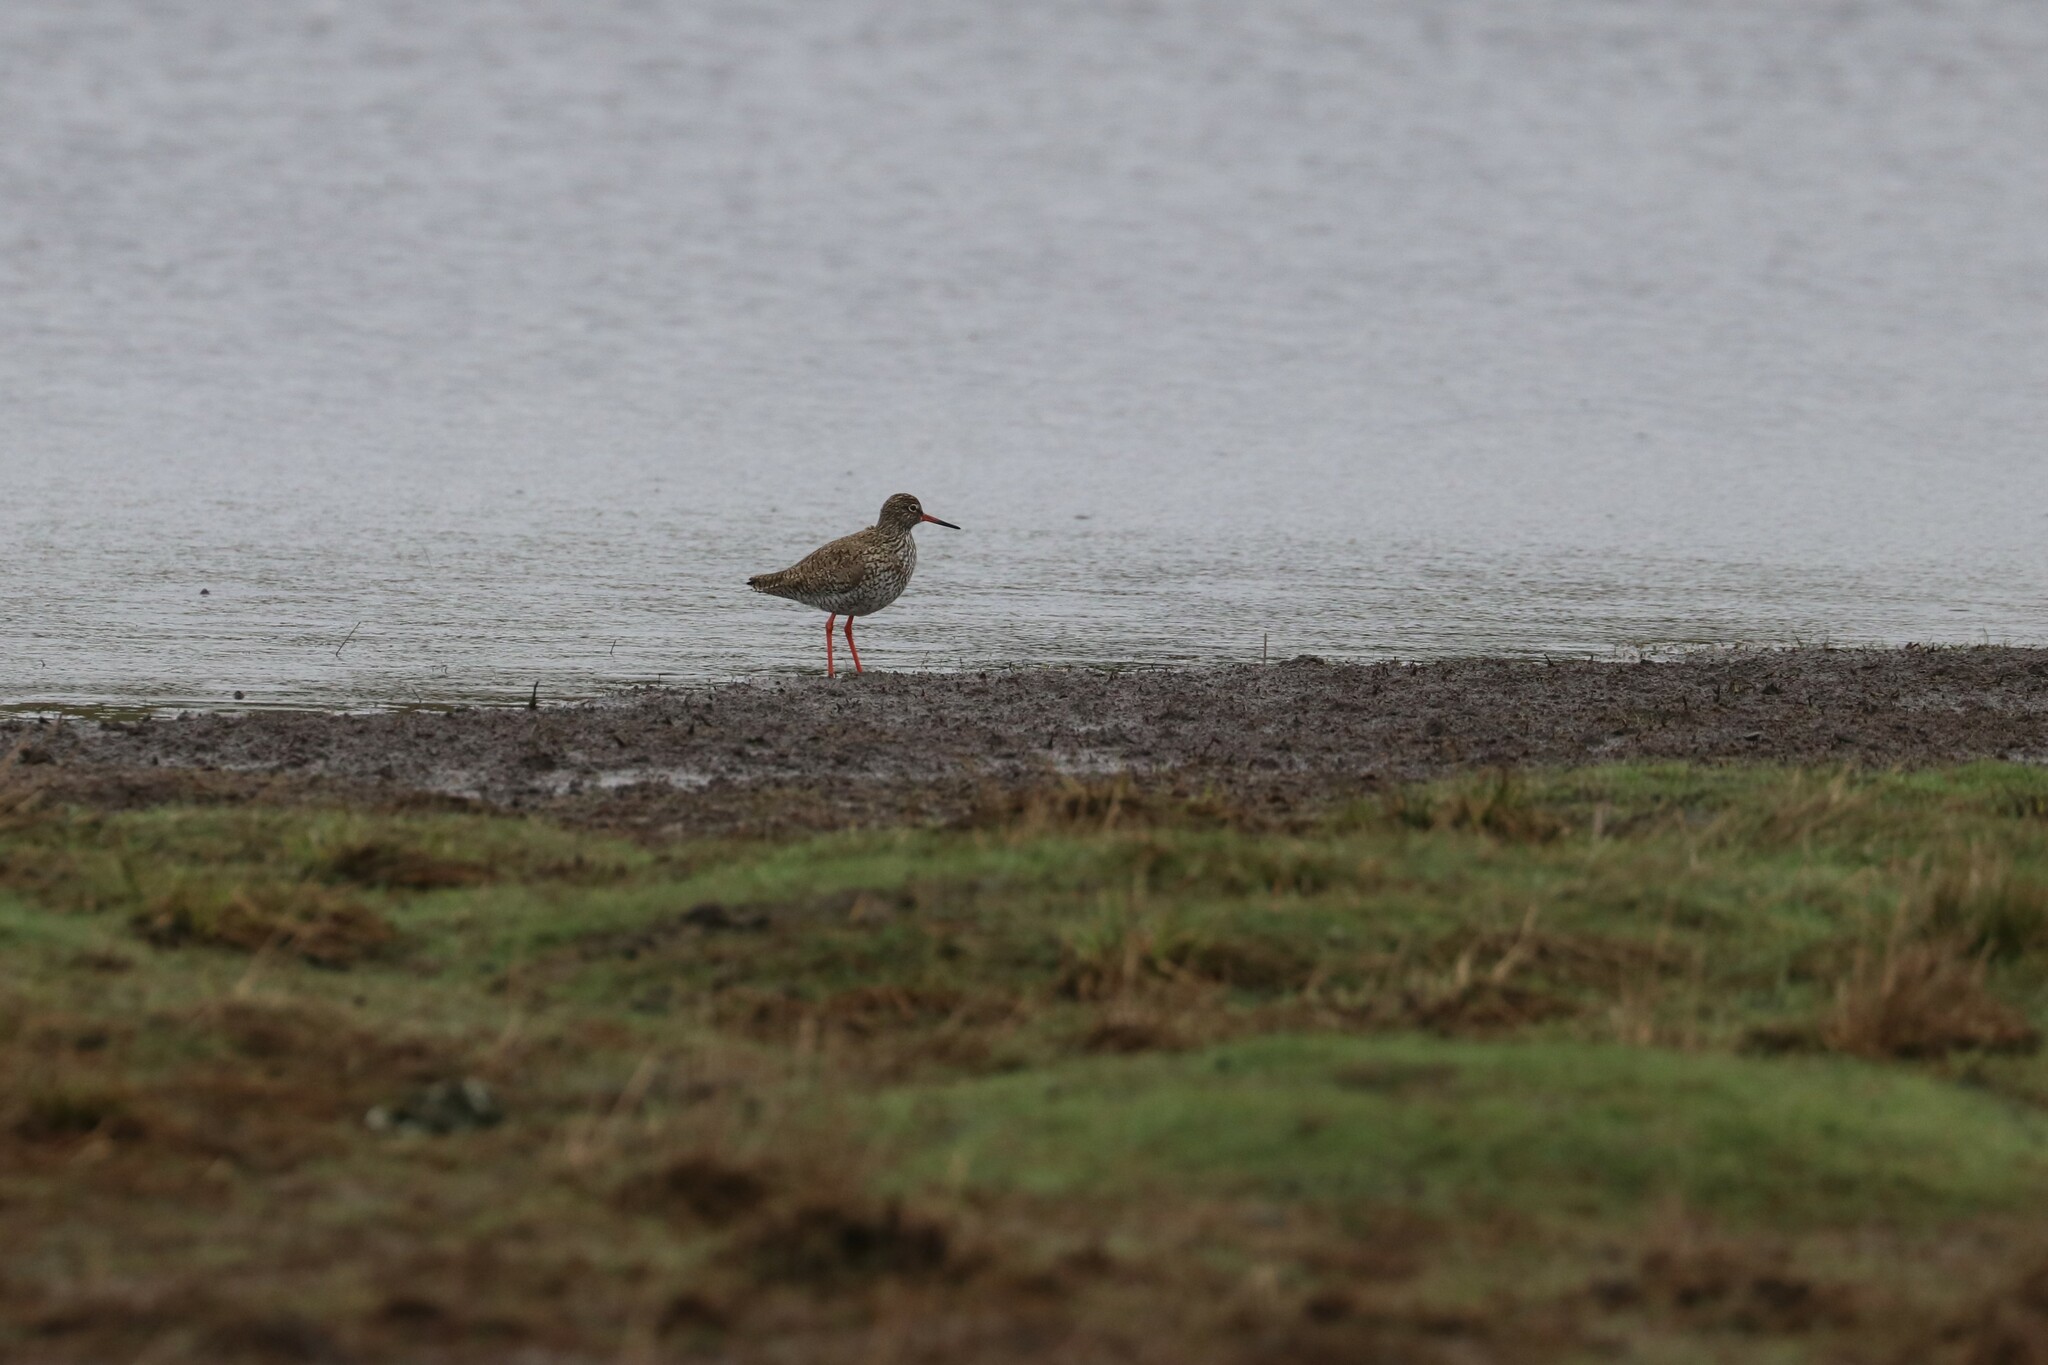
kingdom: Animalia
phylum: Chordata
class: Aves
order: Charadriiformes
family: Scolopacidae
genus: Tringa
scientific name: Tringa totanus
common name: Common redshank
